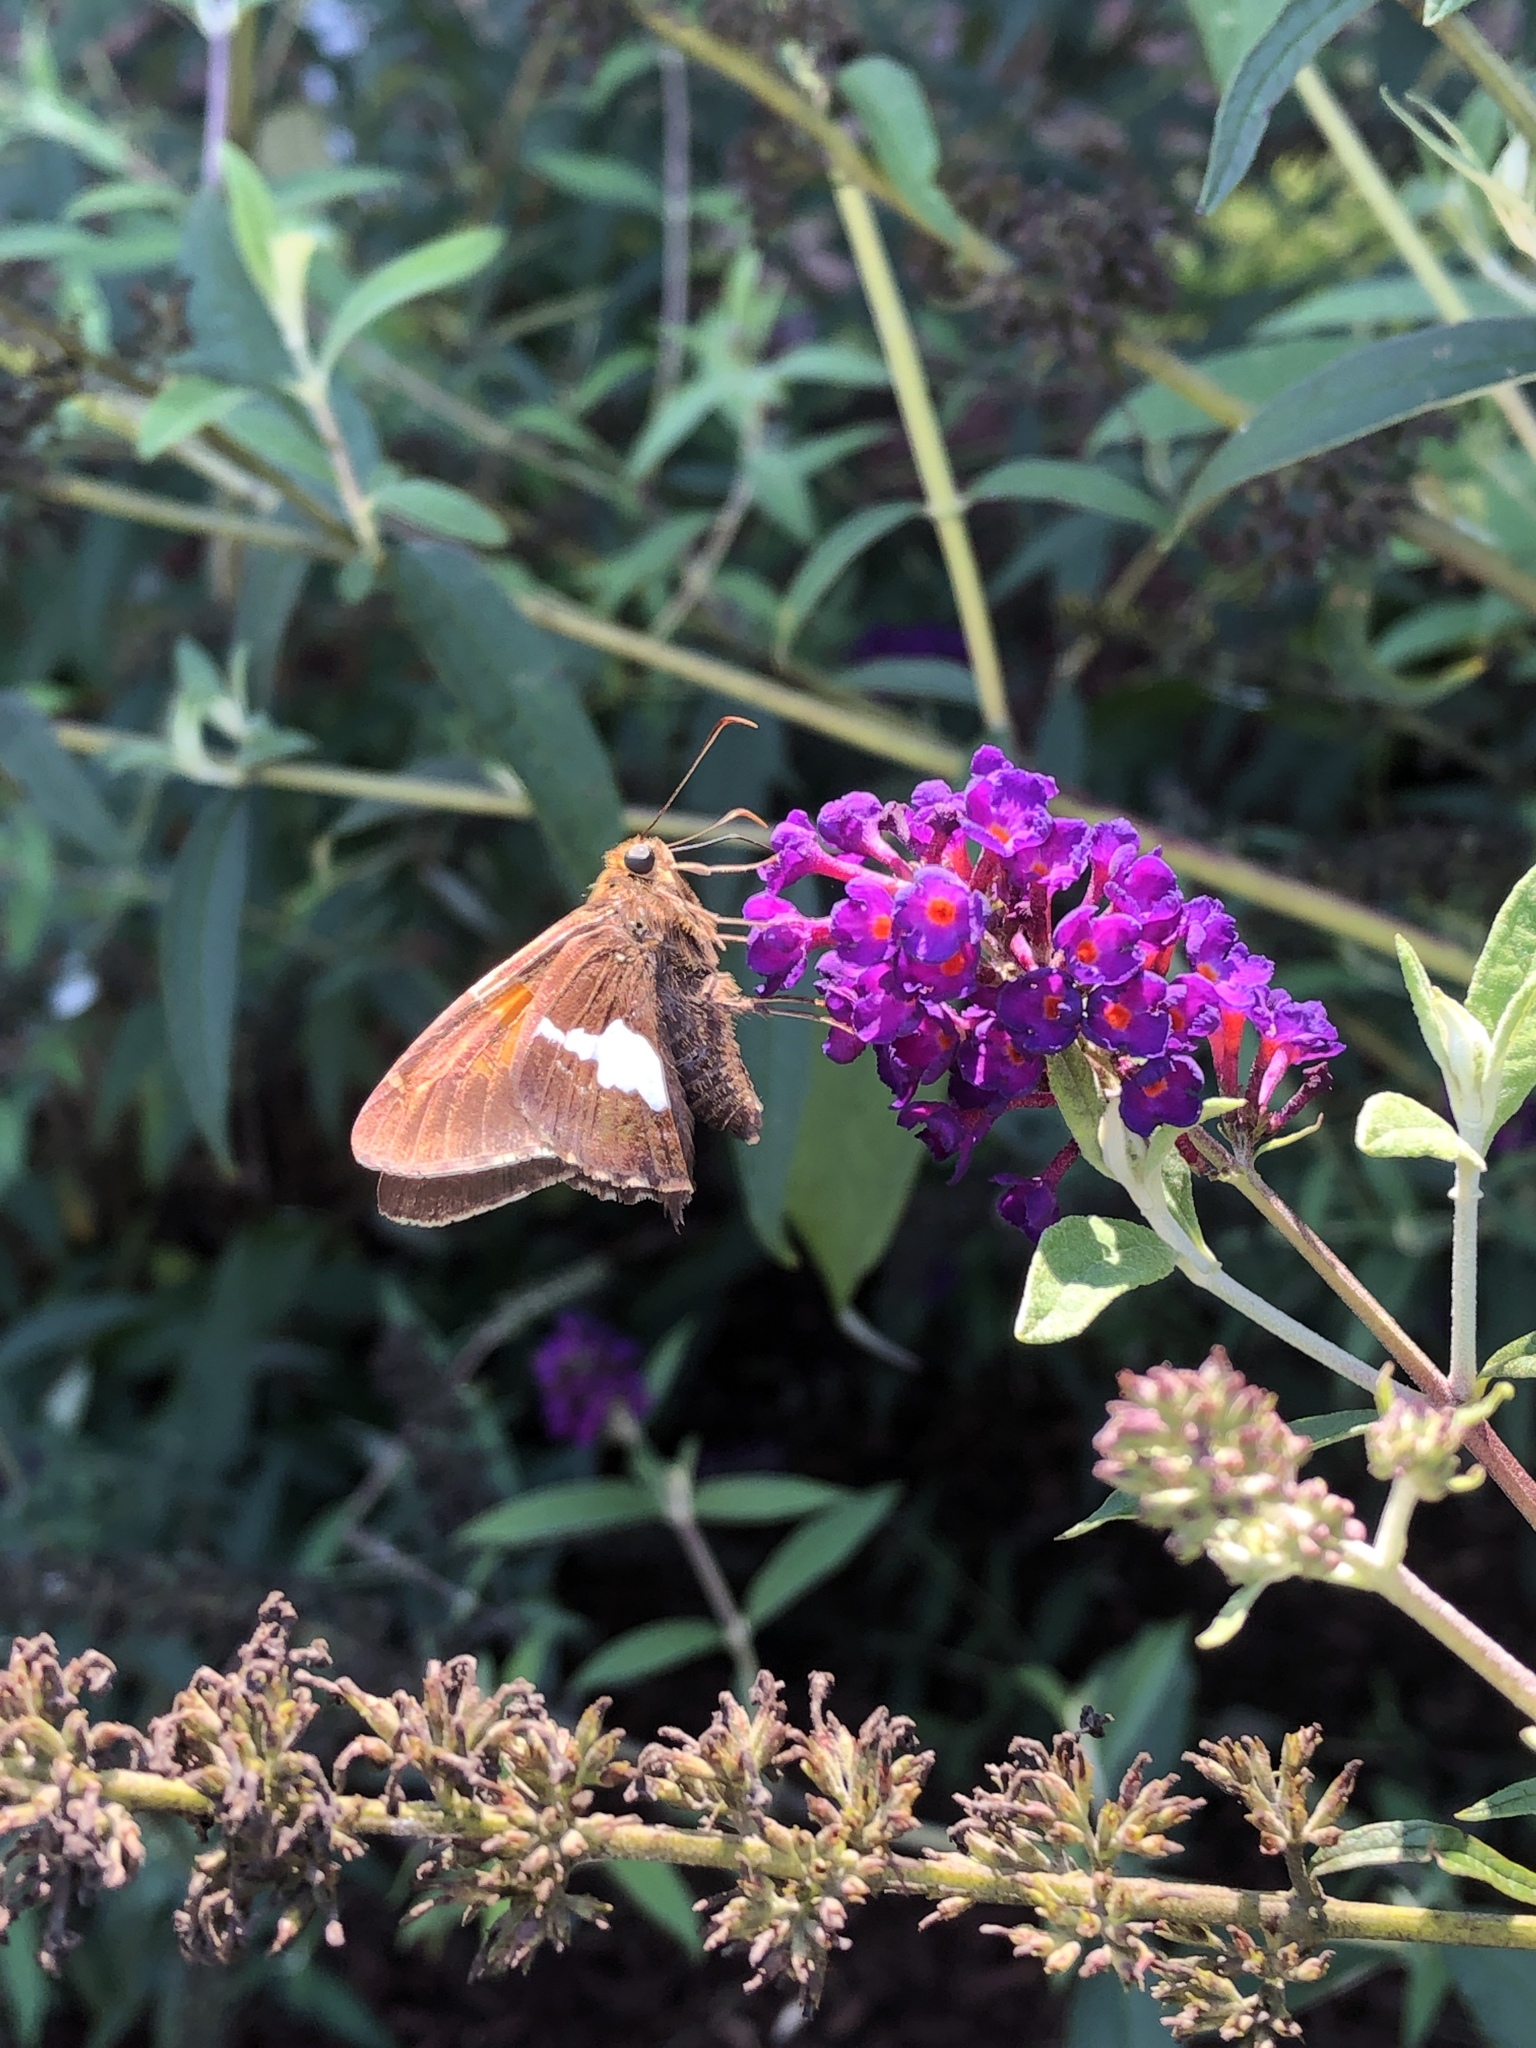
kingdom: Animalia
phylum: Arthropoda
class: Insecta
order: Lepidoptera
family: Hesperiidae
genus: Epargyreus
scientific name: Epargyreus clarus
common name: Silver-spotted skipper
